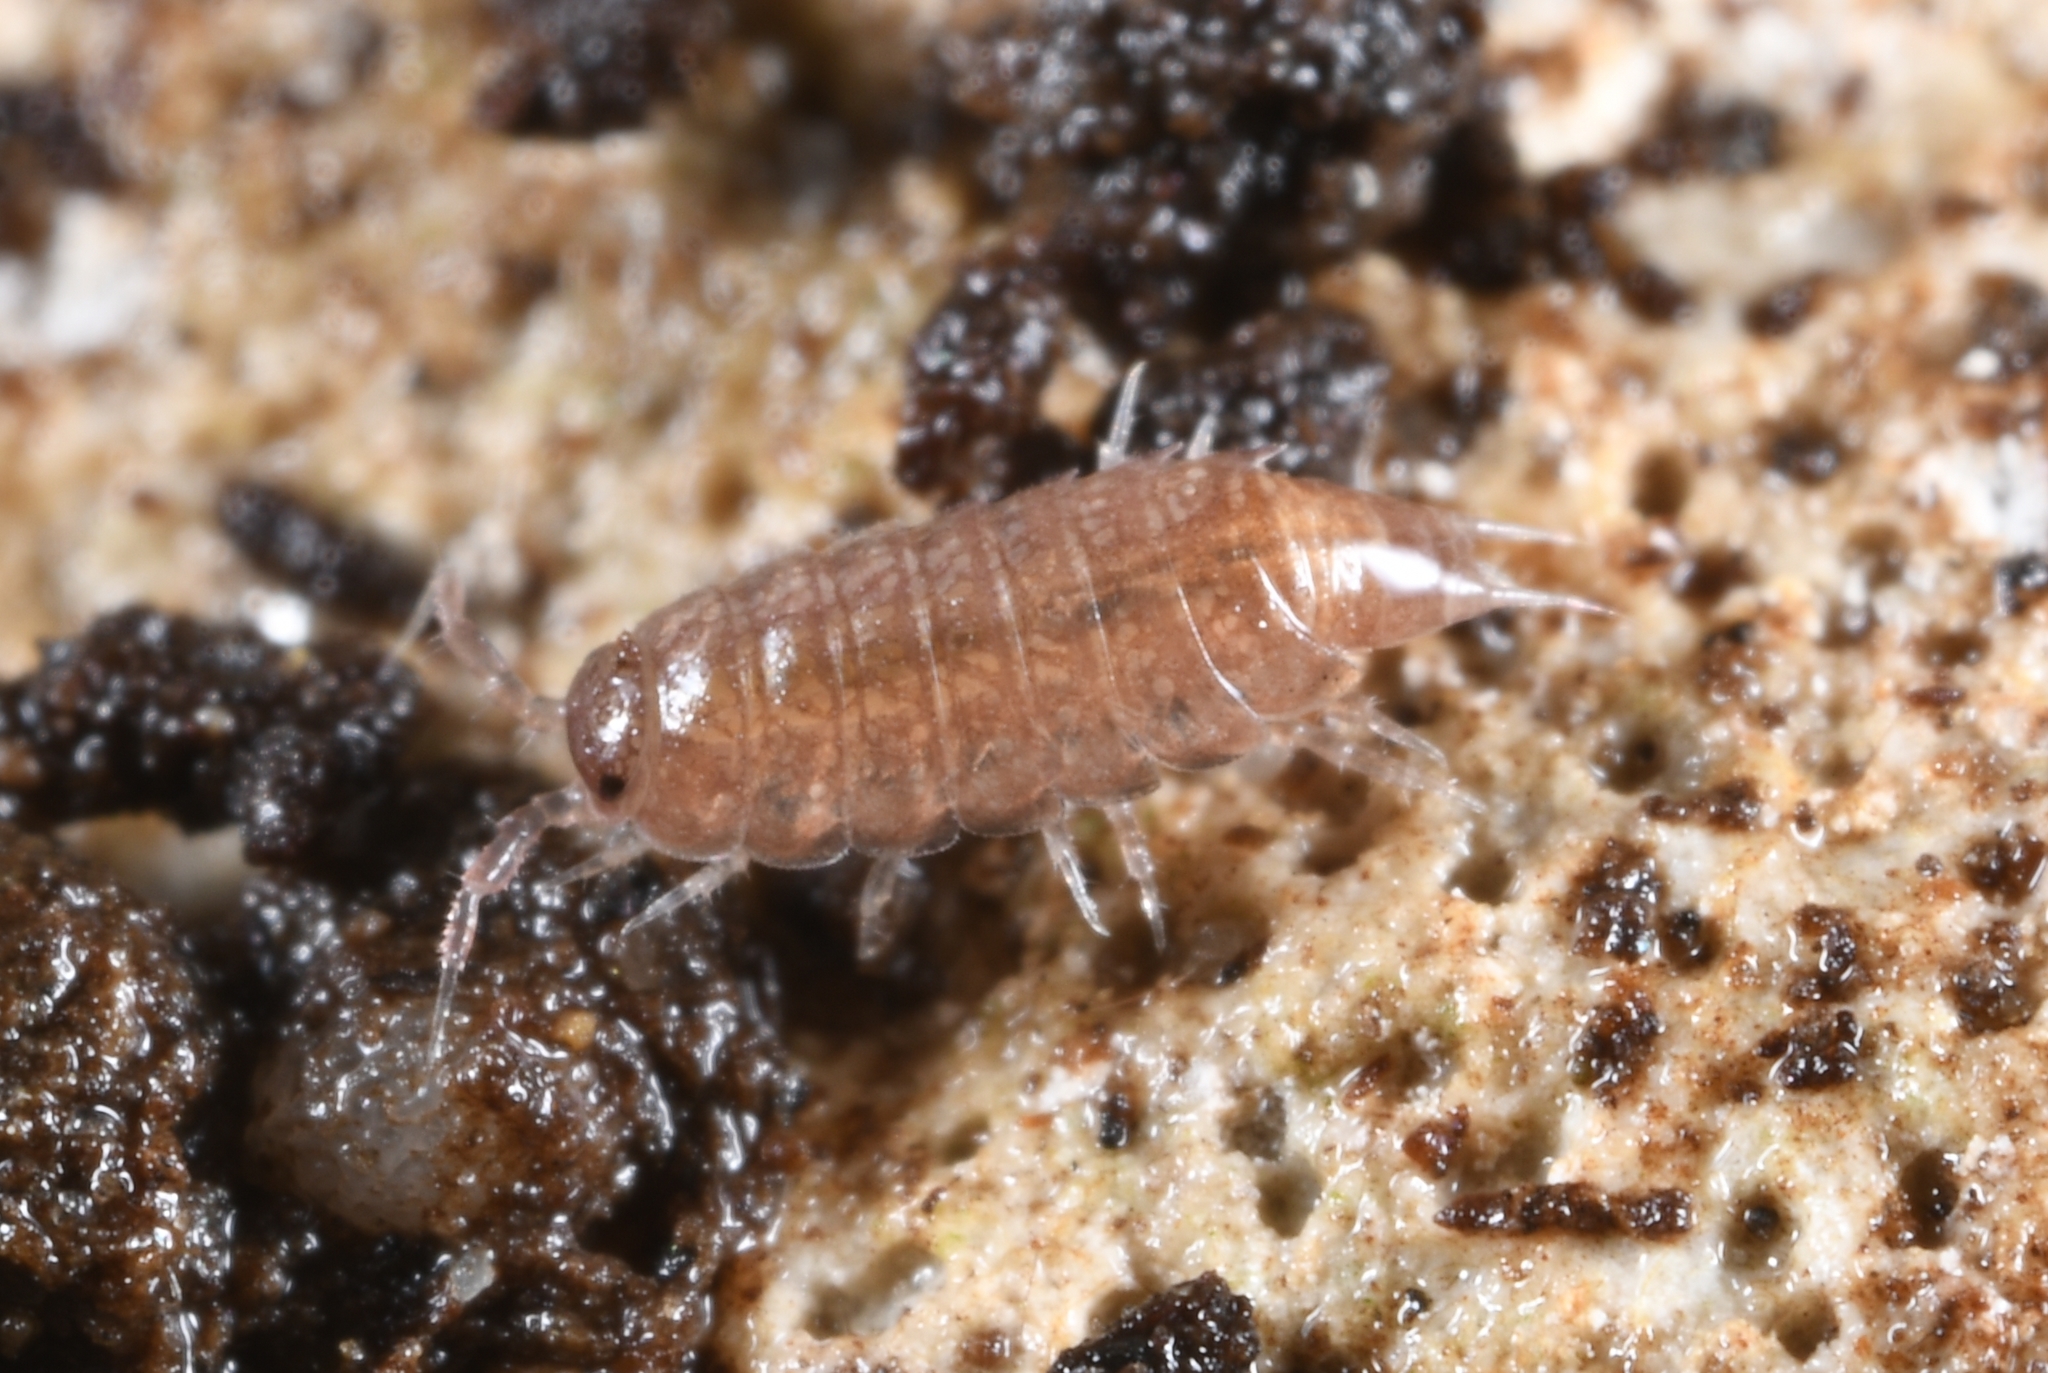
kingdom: Animalia
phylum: Arthropoda
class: Malacostraca
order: Isopoda
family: Trichoniscidae
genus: Trichoniscus
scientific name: Trichoniscus
